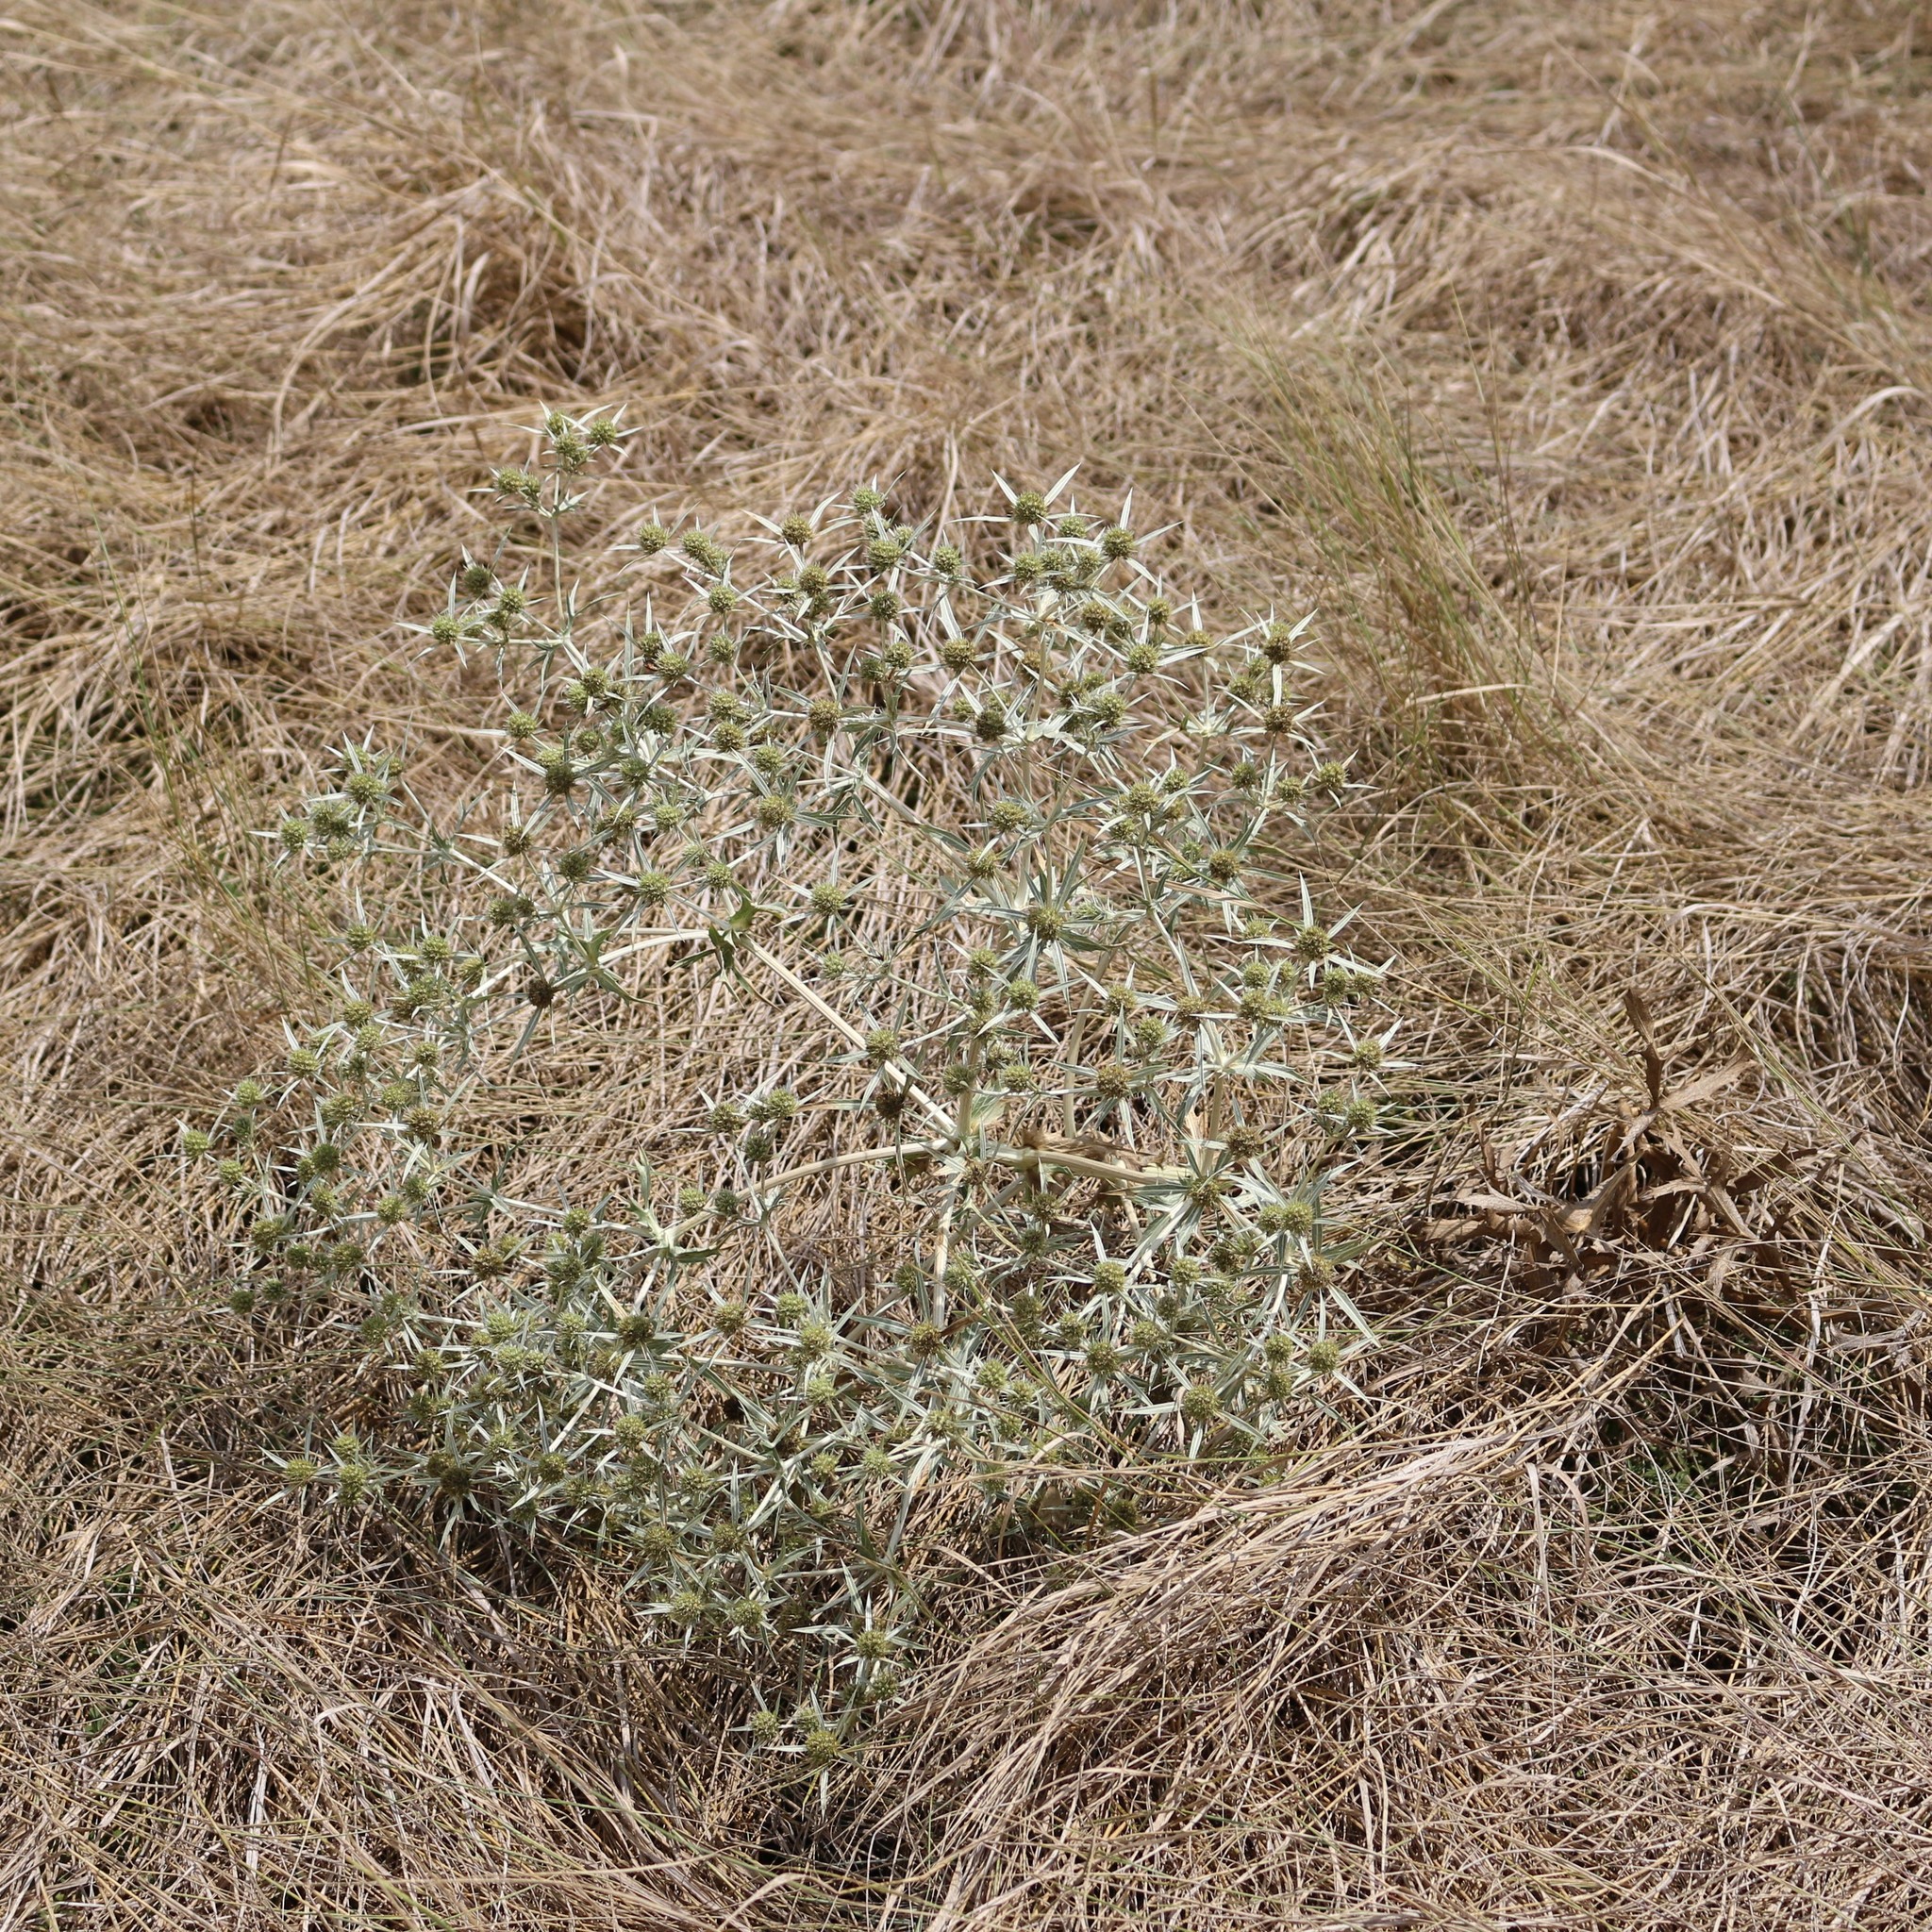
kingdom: Plantae
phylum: Tracheophyta
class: Magnoliopsida
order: Apiales
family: Apiaceae
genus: Eryngium
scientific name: Eryngium campestre
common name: Field eryngo
